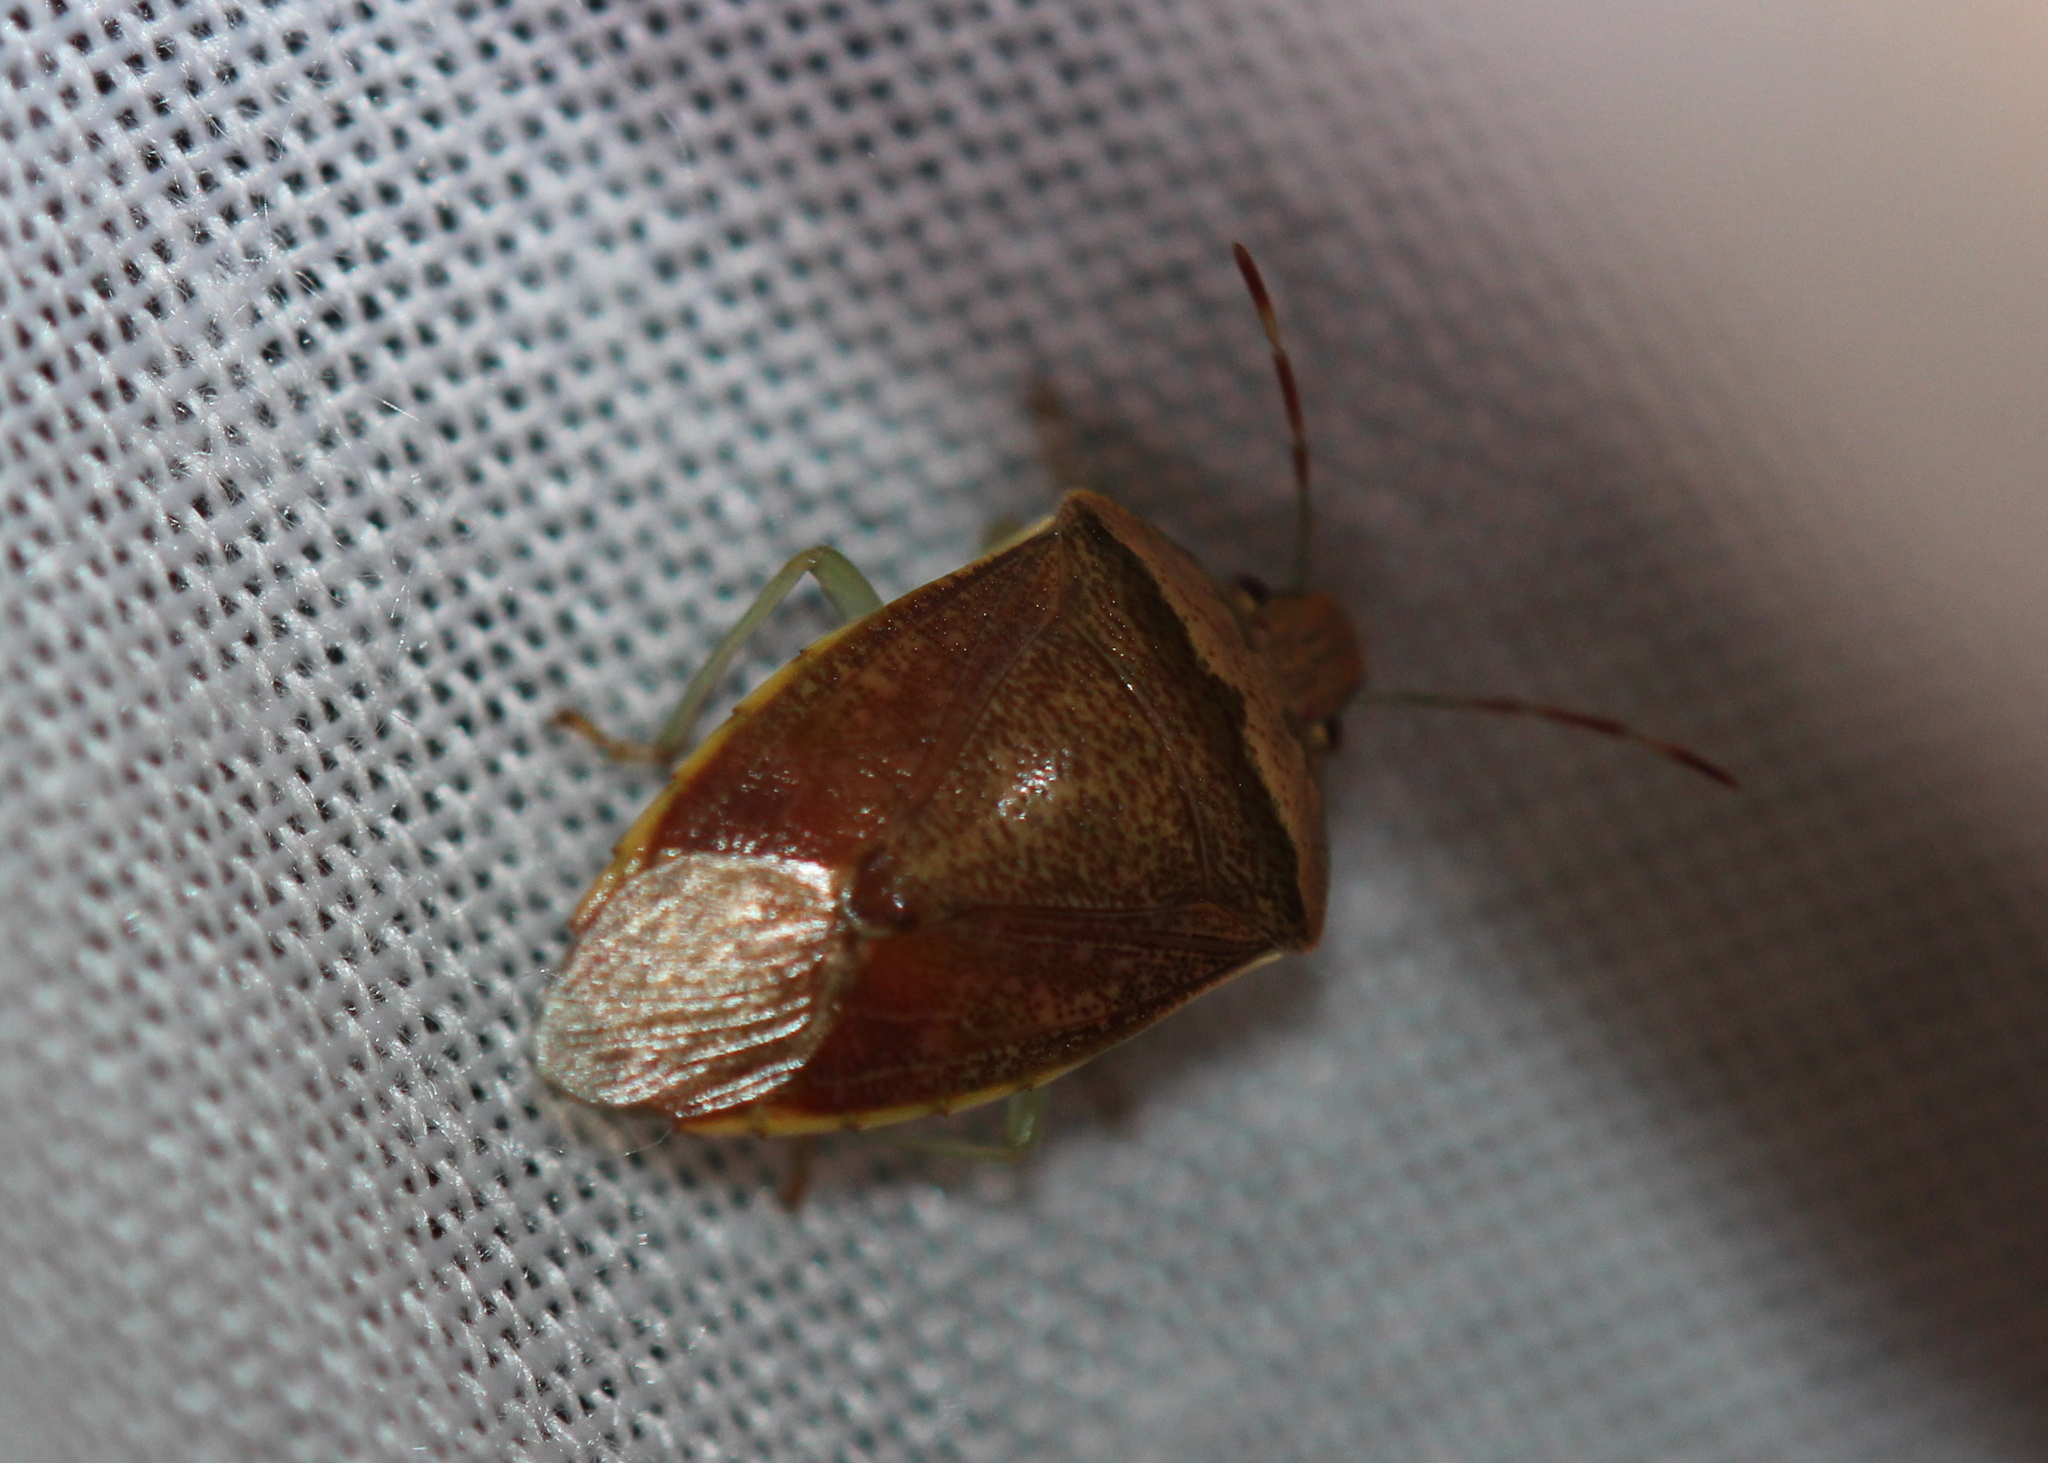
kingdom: Animalia
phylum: Arthropoda
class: Insecta
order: Hemiptera
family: Pentatomidae
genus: Banasa
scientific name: Banasa calva
